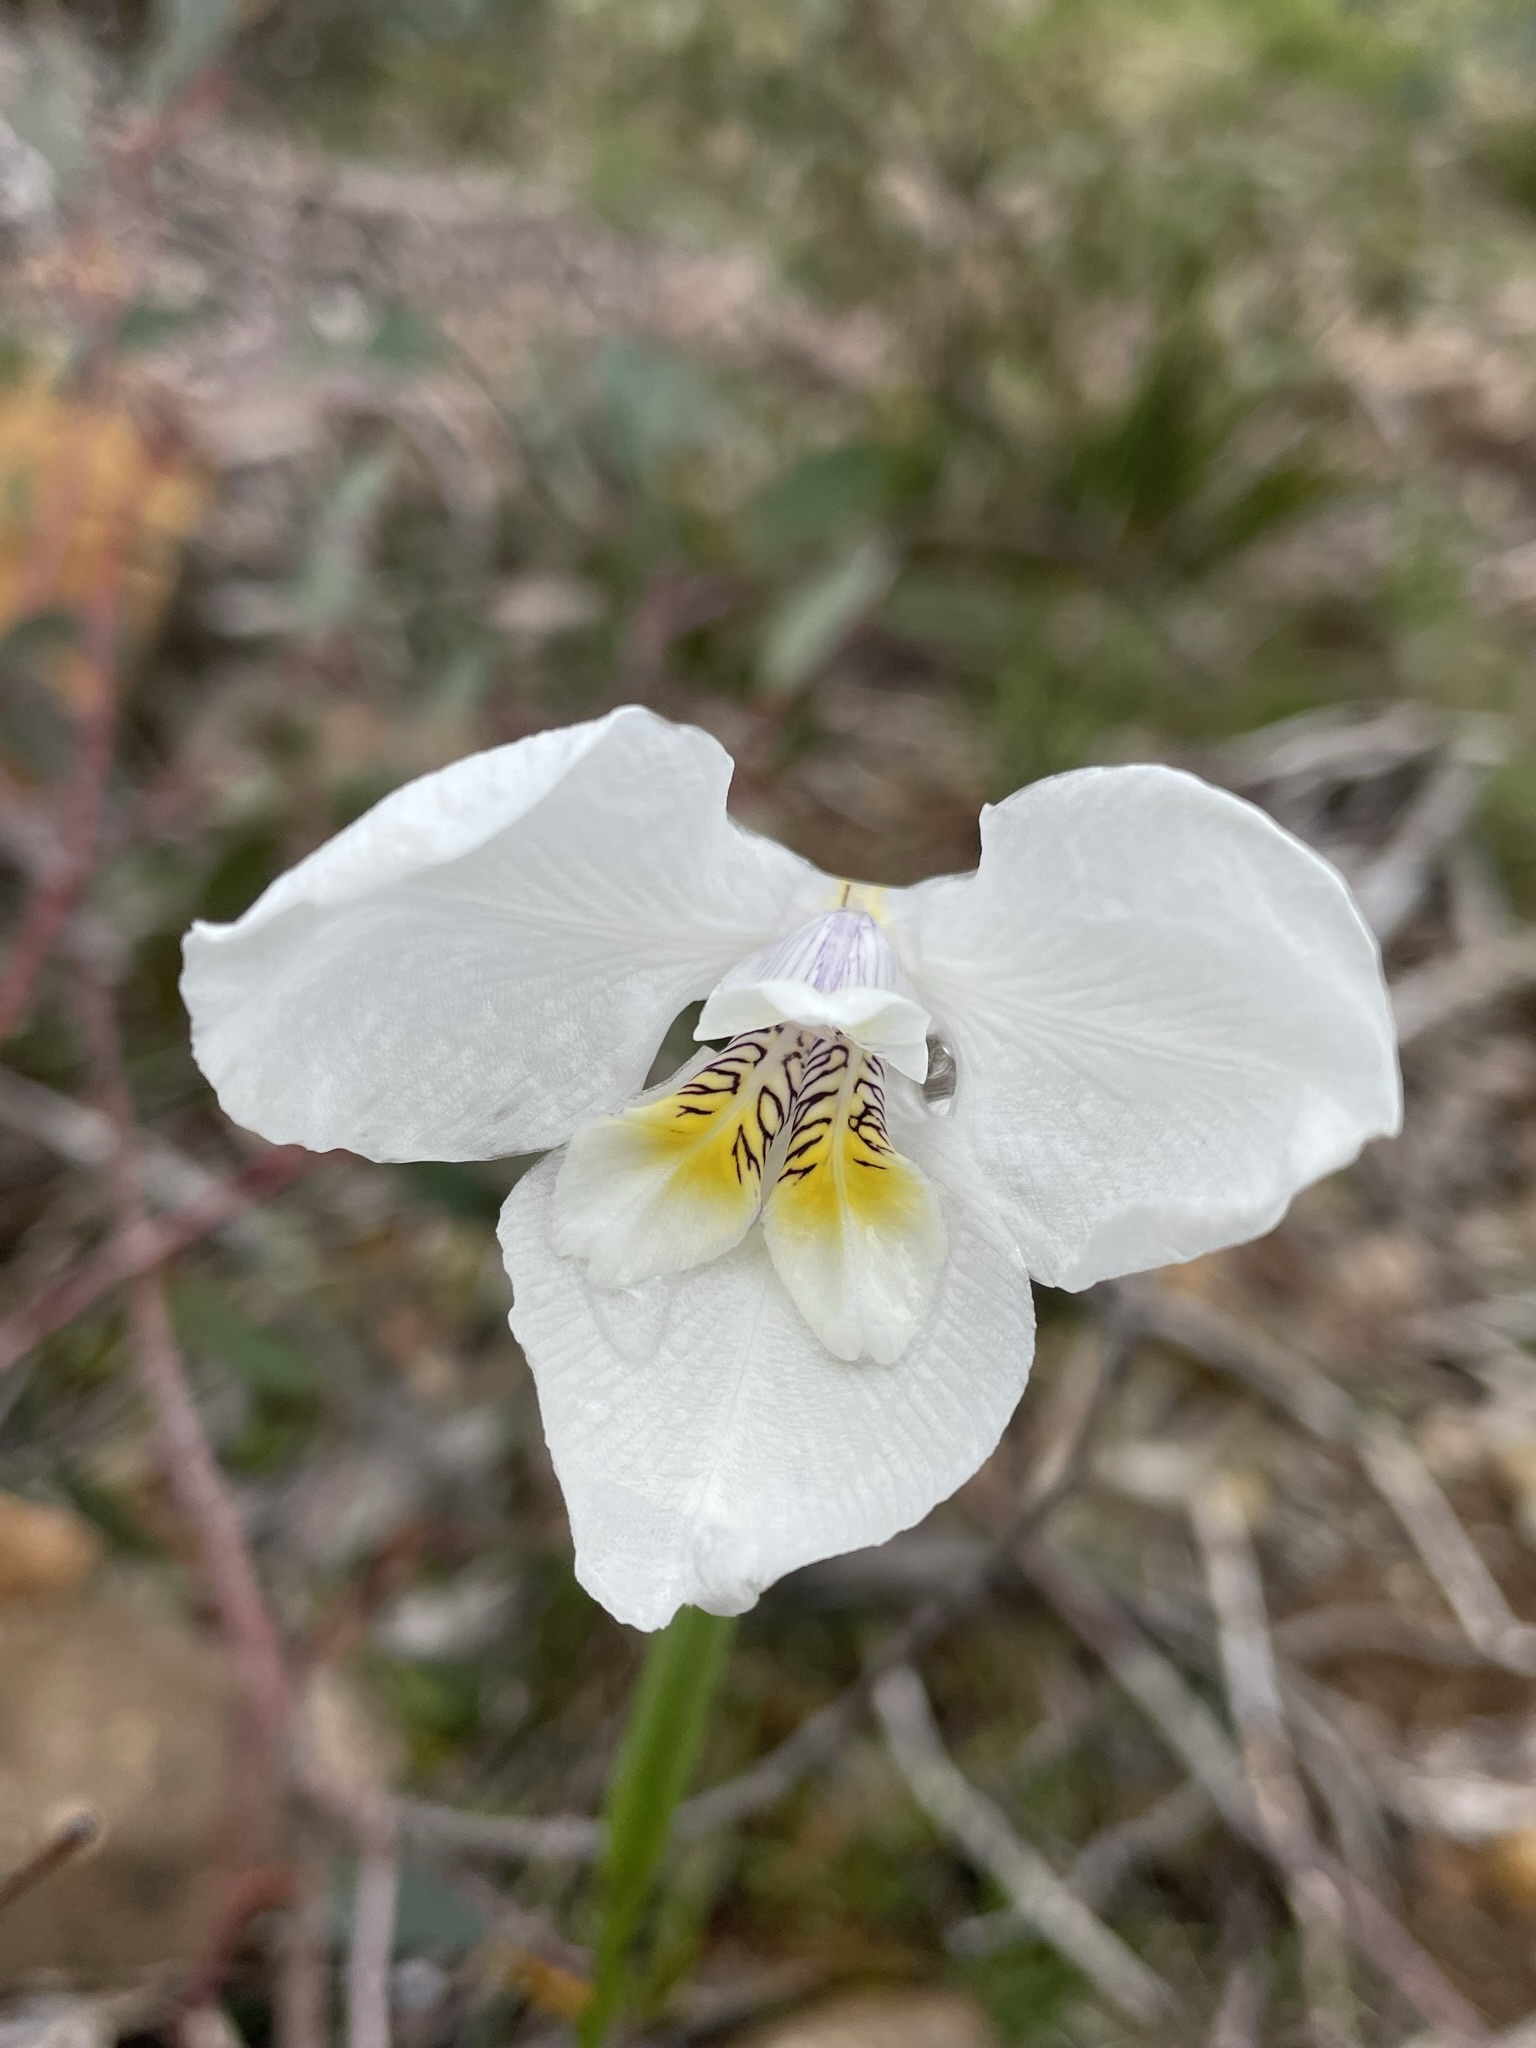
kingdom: Plantae
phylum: Tracheophyta
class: Liliopsida
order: Asparagales
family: Iridaceae
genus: Diplarrena
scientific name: Diplarrena latifolia
